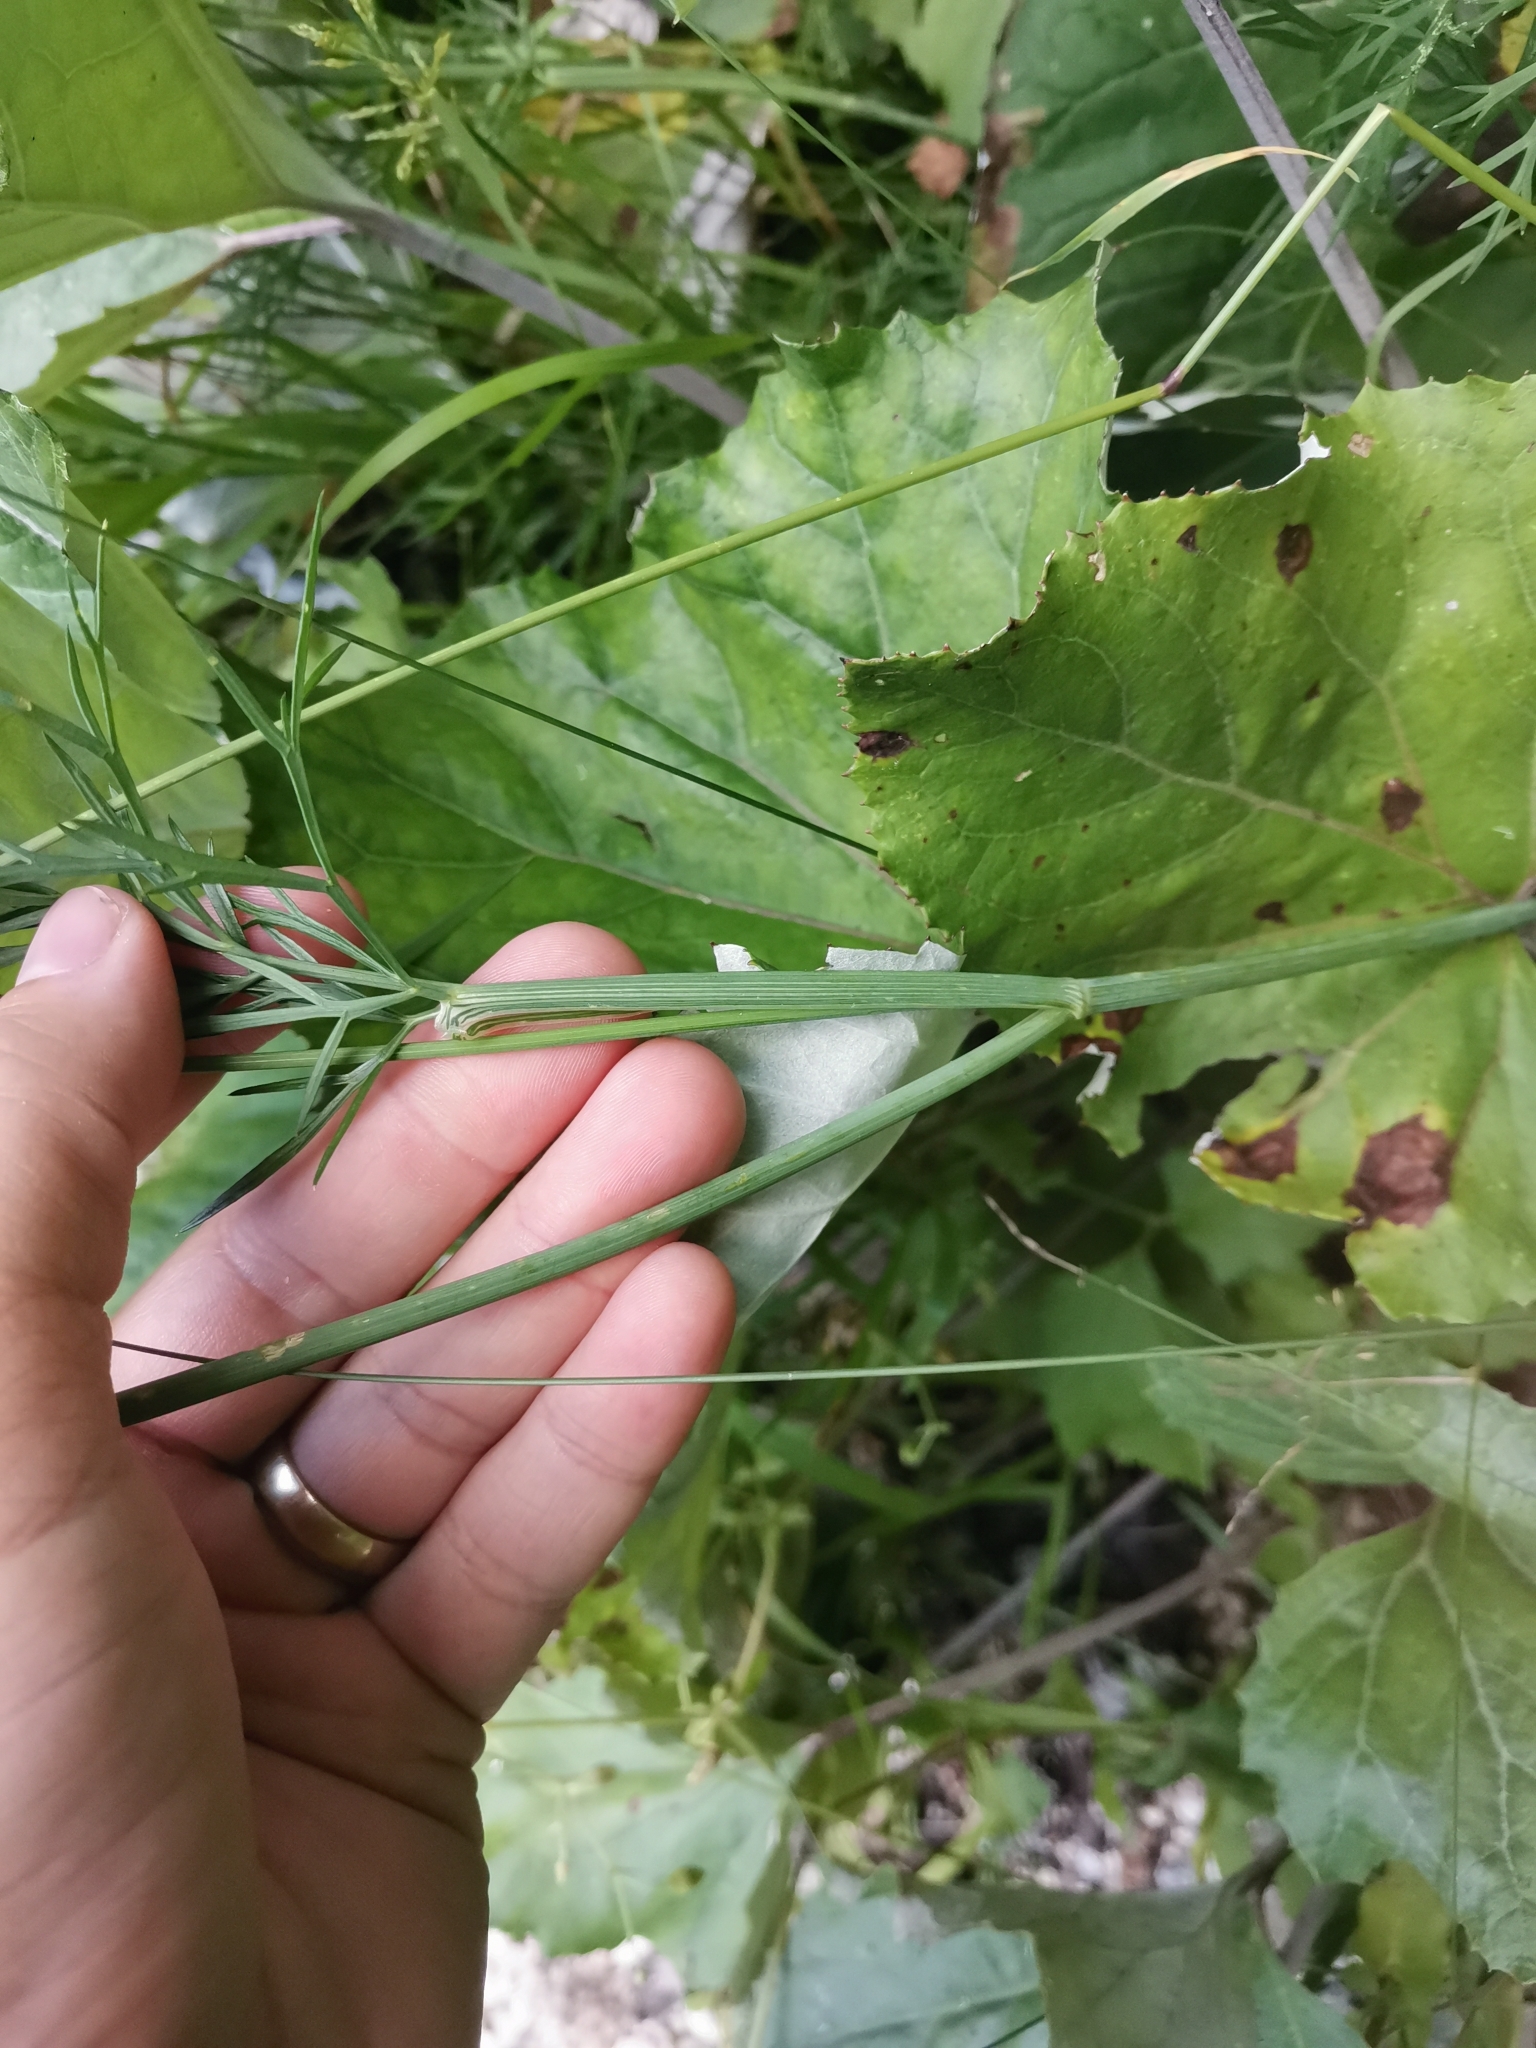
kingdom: Plantae
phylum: Tracheophyta
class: Magnoliopsida
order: Apiales
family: Apiaceae
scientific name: Apiaceae
